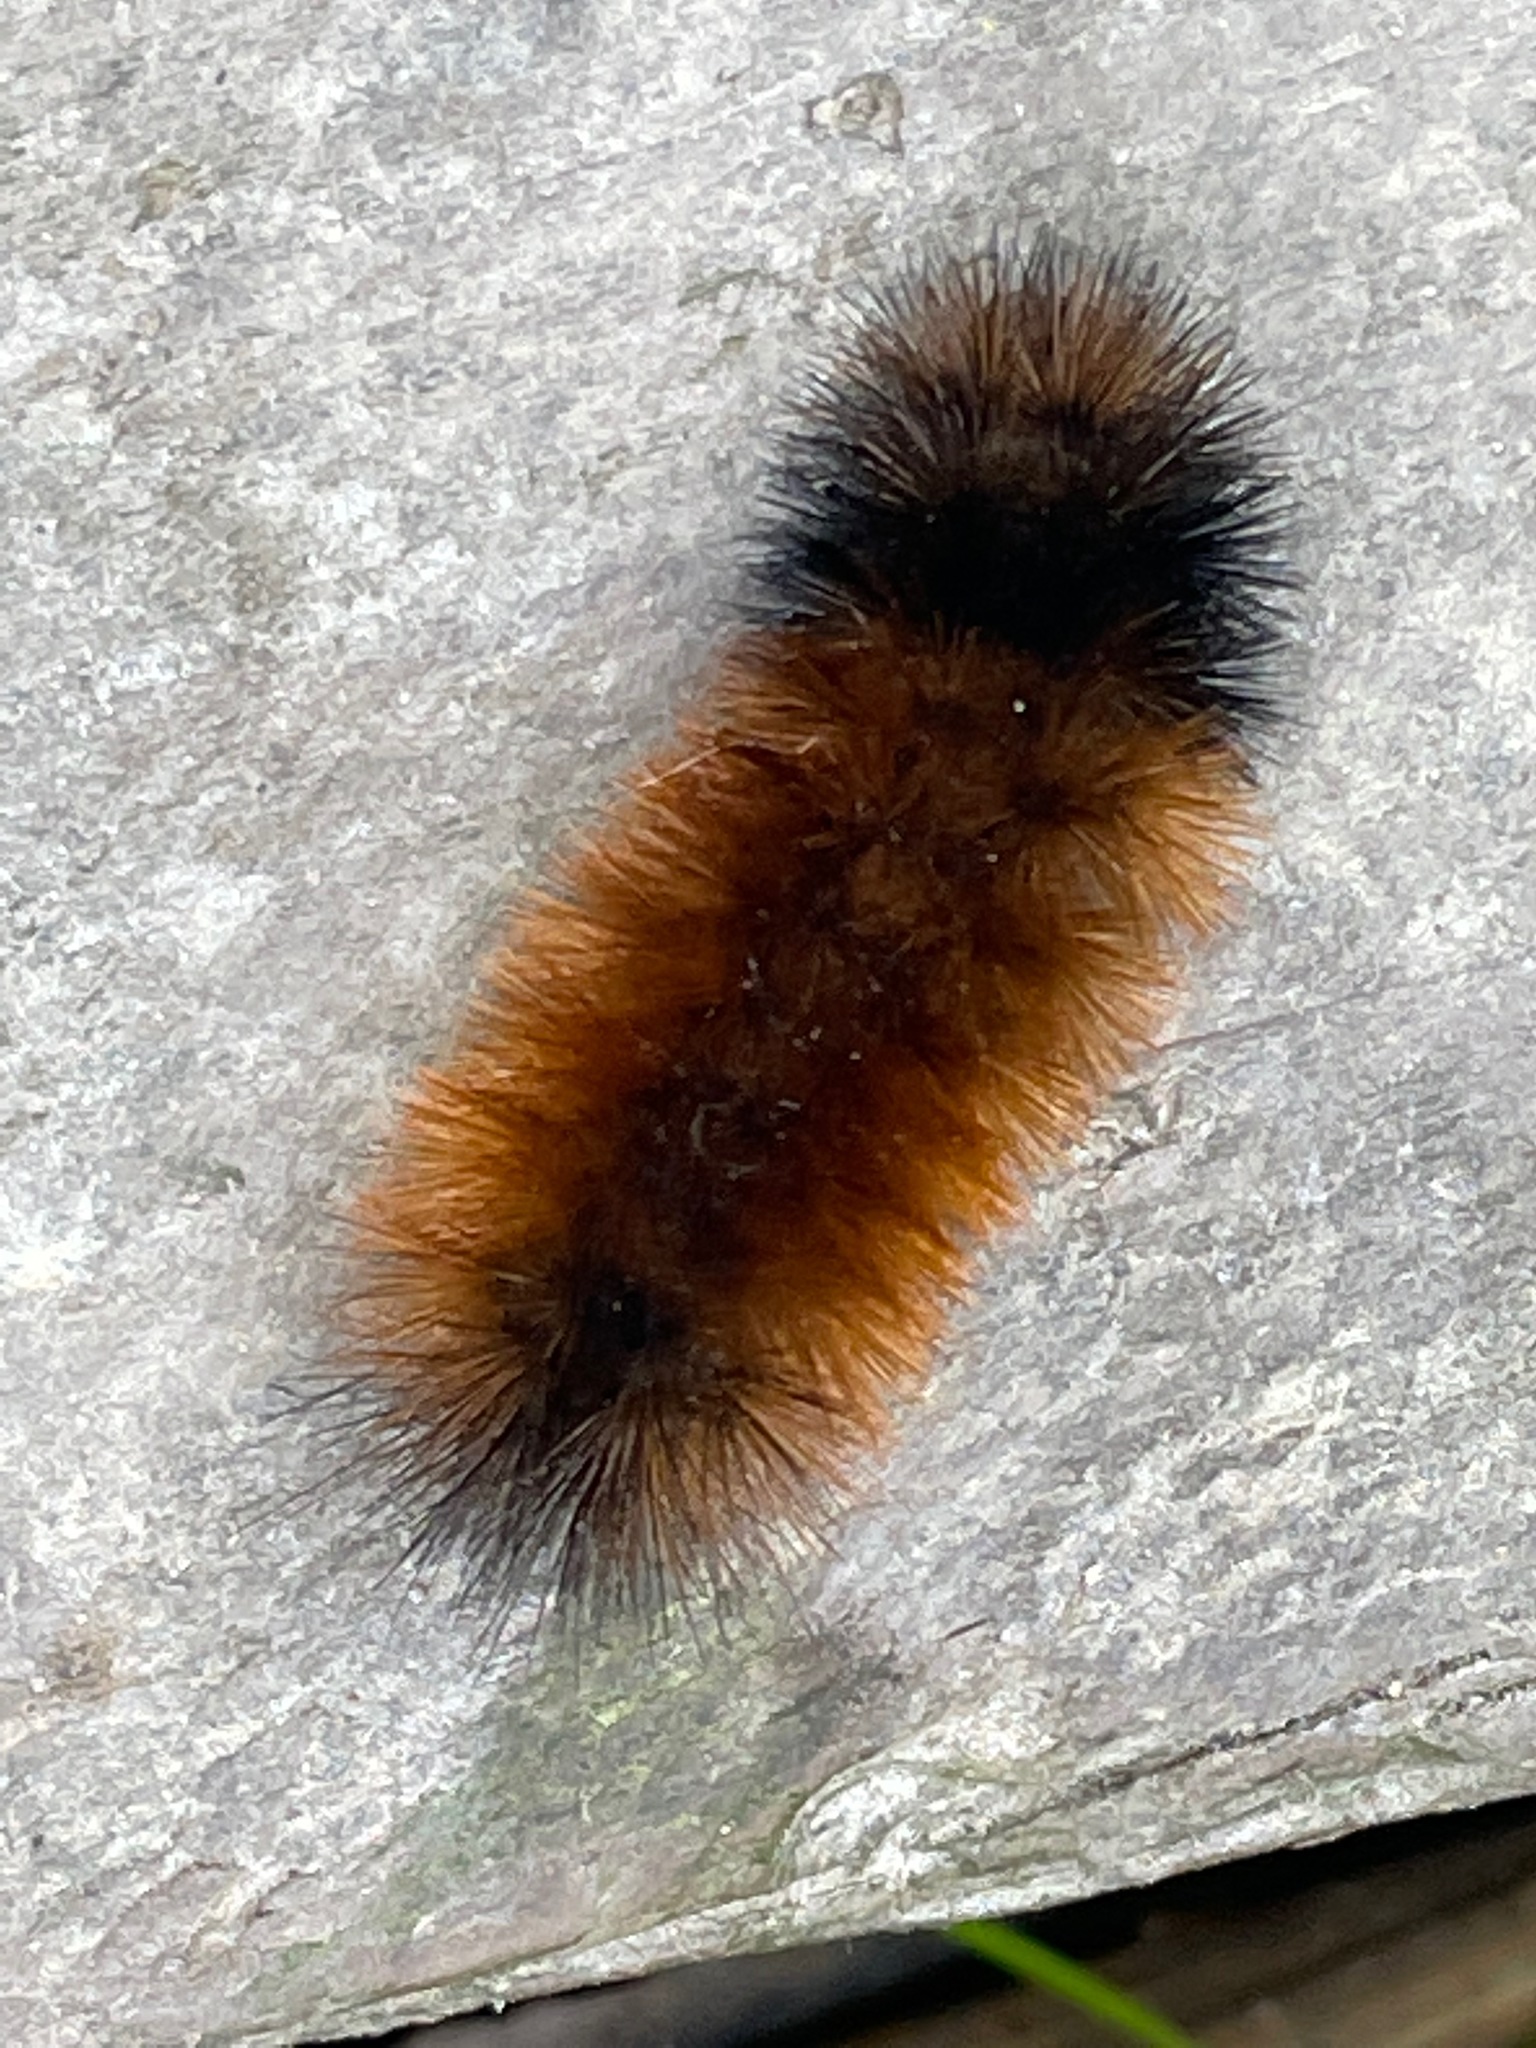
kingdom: Animalia
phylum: Arthropoda
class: Insecta
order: Lepidoptera
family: Erebidae
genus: Pyrrharctia
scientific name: Pyrrharctia isabella
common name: Isabella tiger moth
